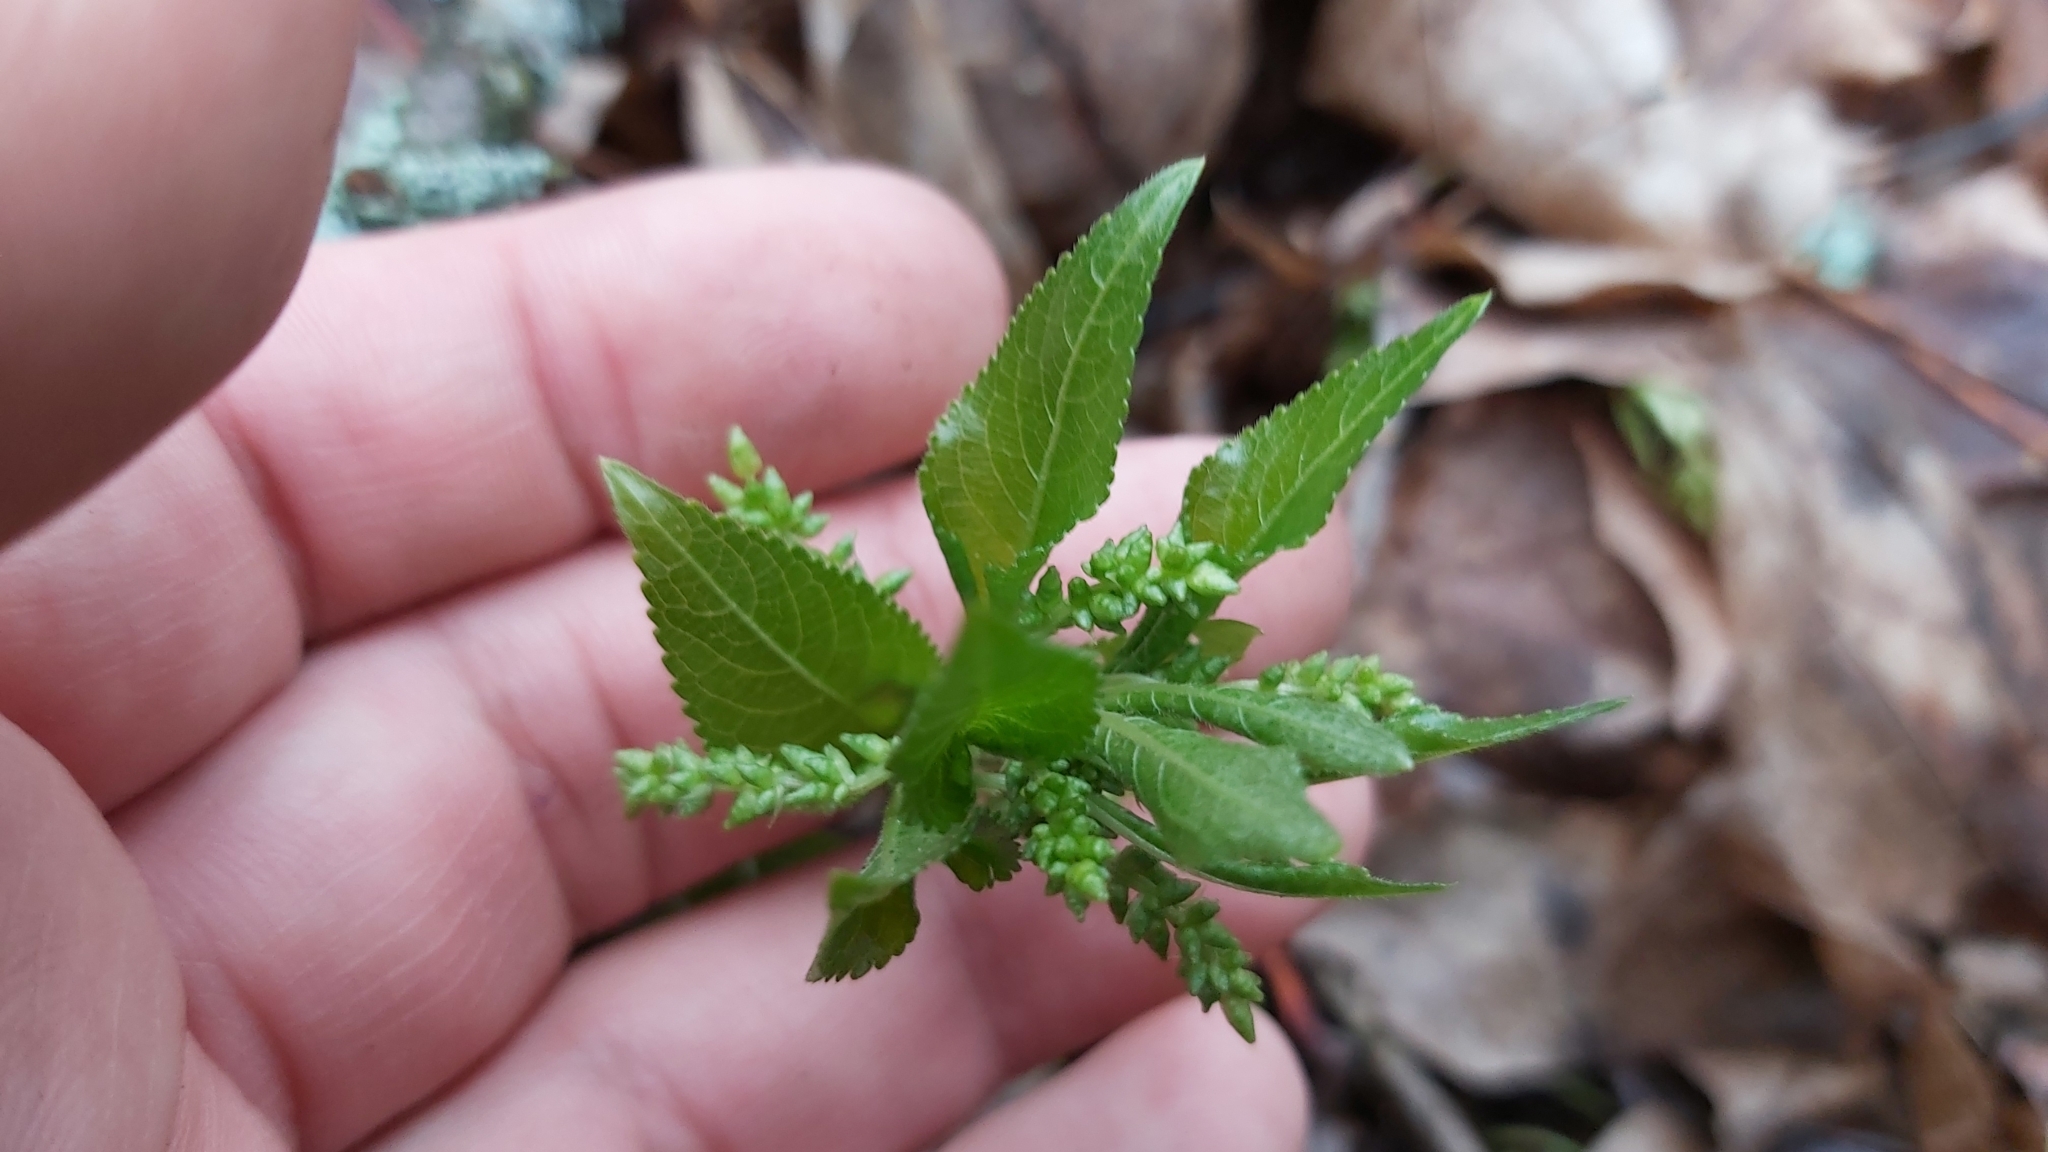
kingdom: Plantae
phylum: Tracheophyta
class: Magnoliopsida
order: Malpighiales
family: Euphorbiaceae
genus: Mercurialis
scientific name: Mercurialis perennis
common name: Dog mercury
